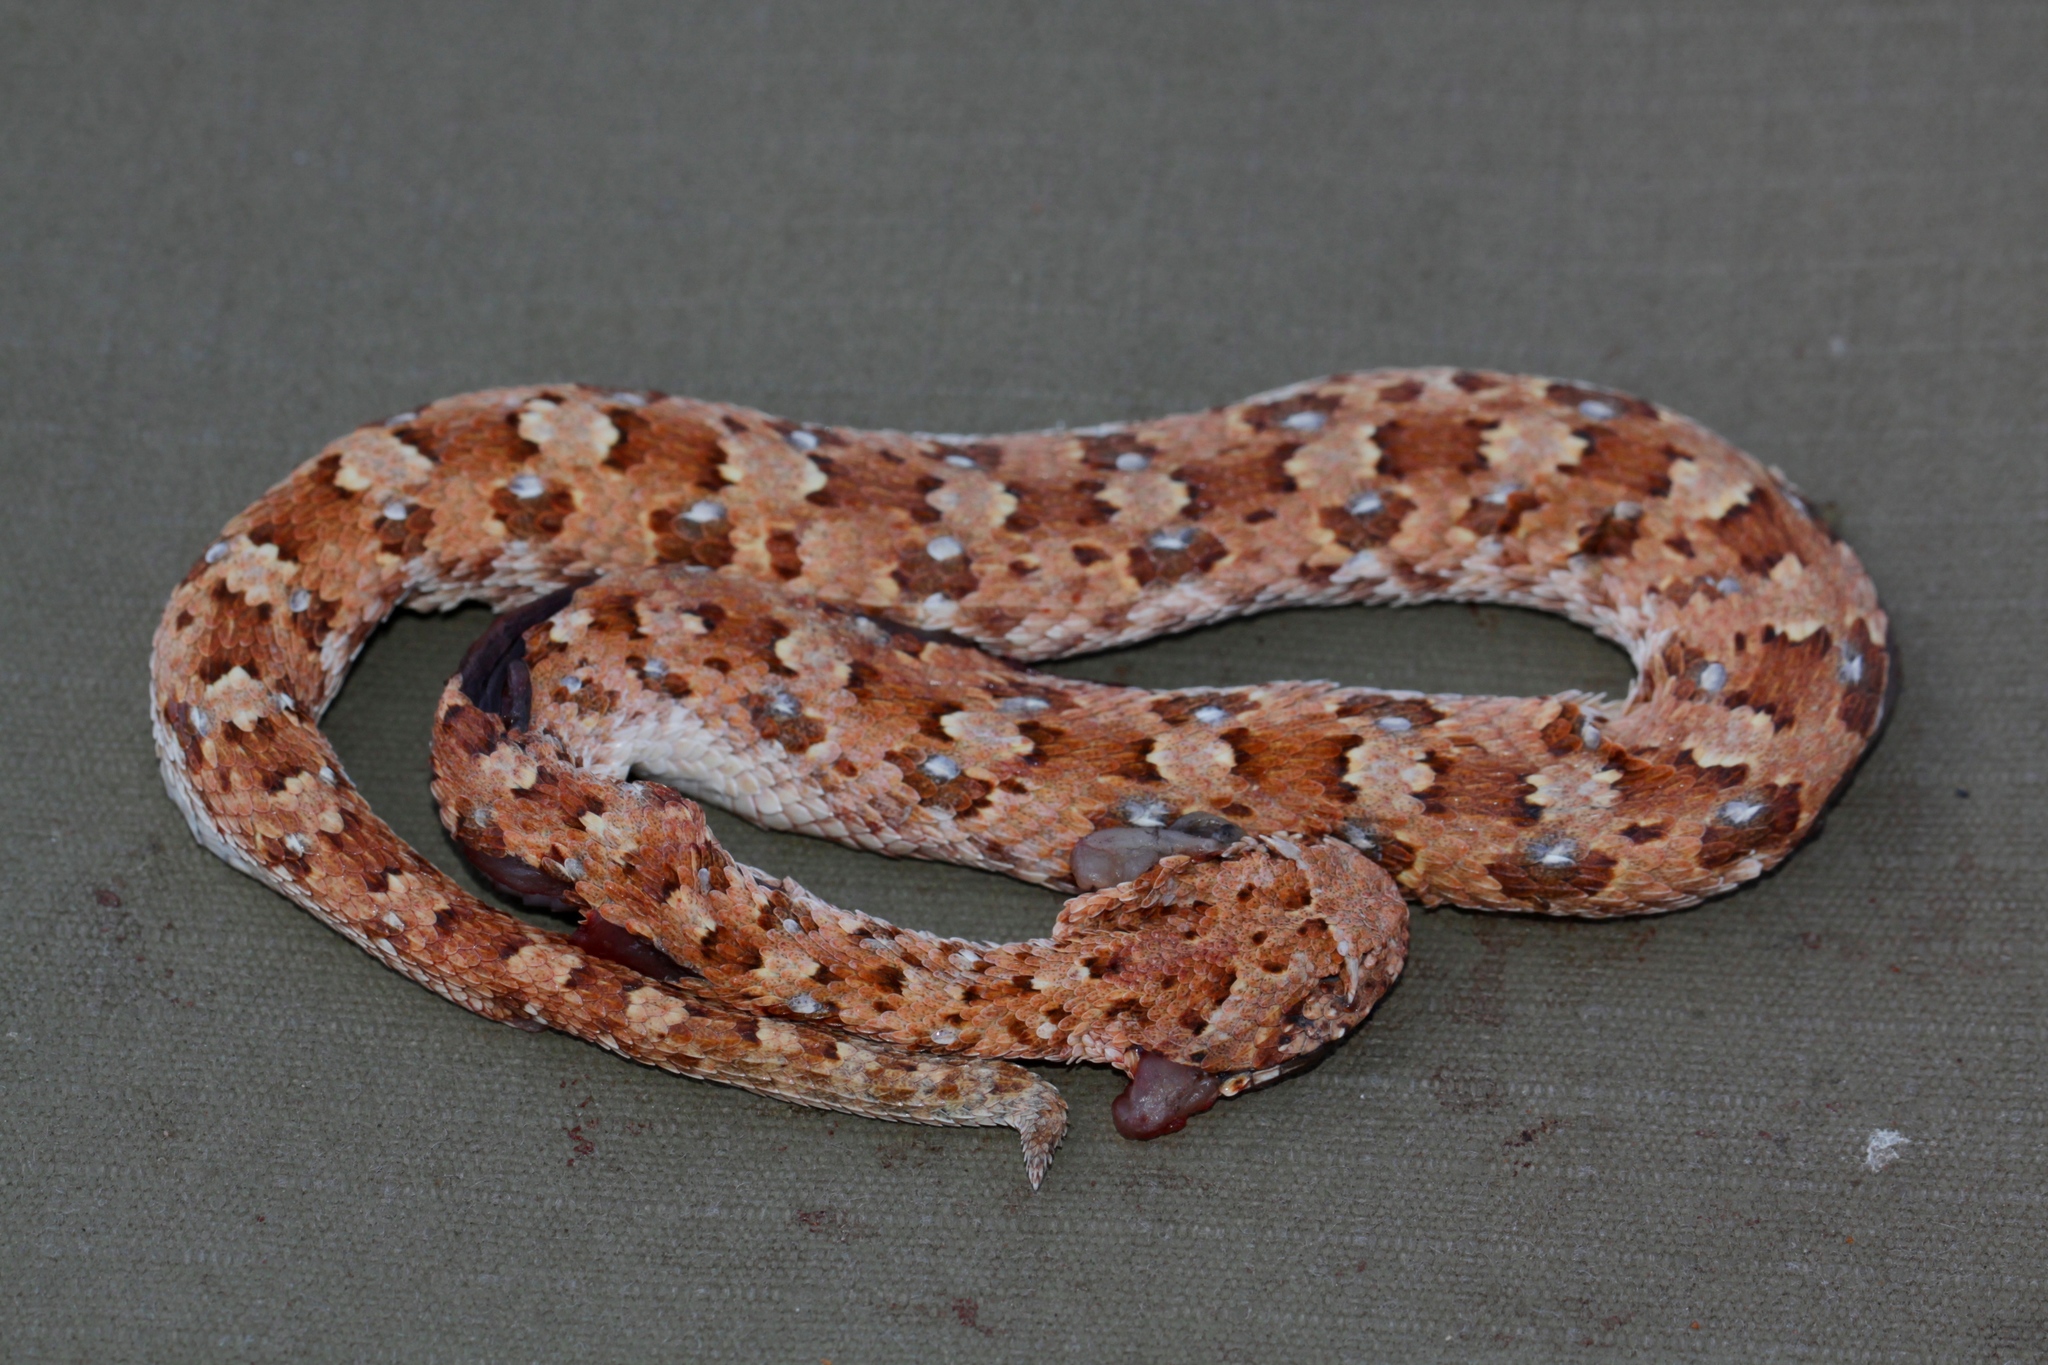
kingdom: Animalia
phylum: Chordata
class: Squamata
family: Viperidae
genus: Bitis
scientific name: Bitis caudalis
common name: Horned adder
